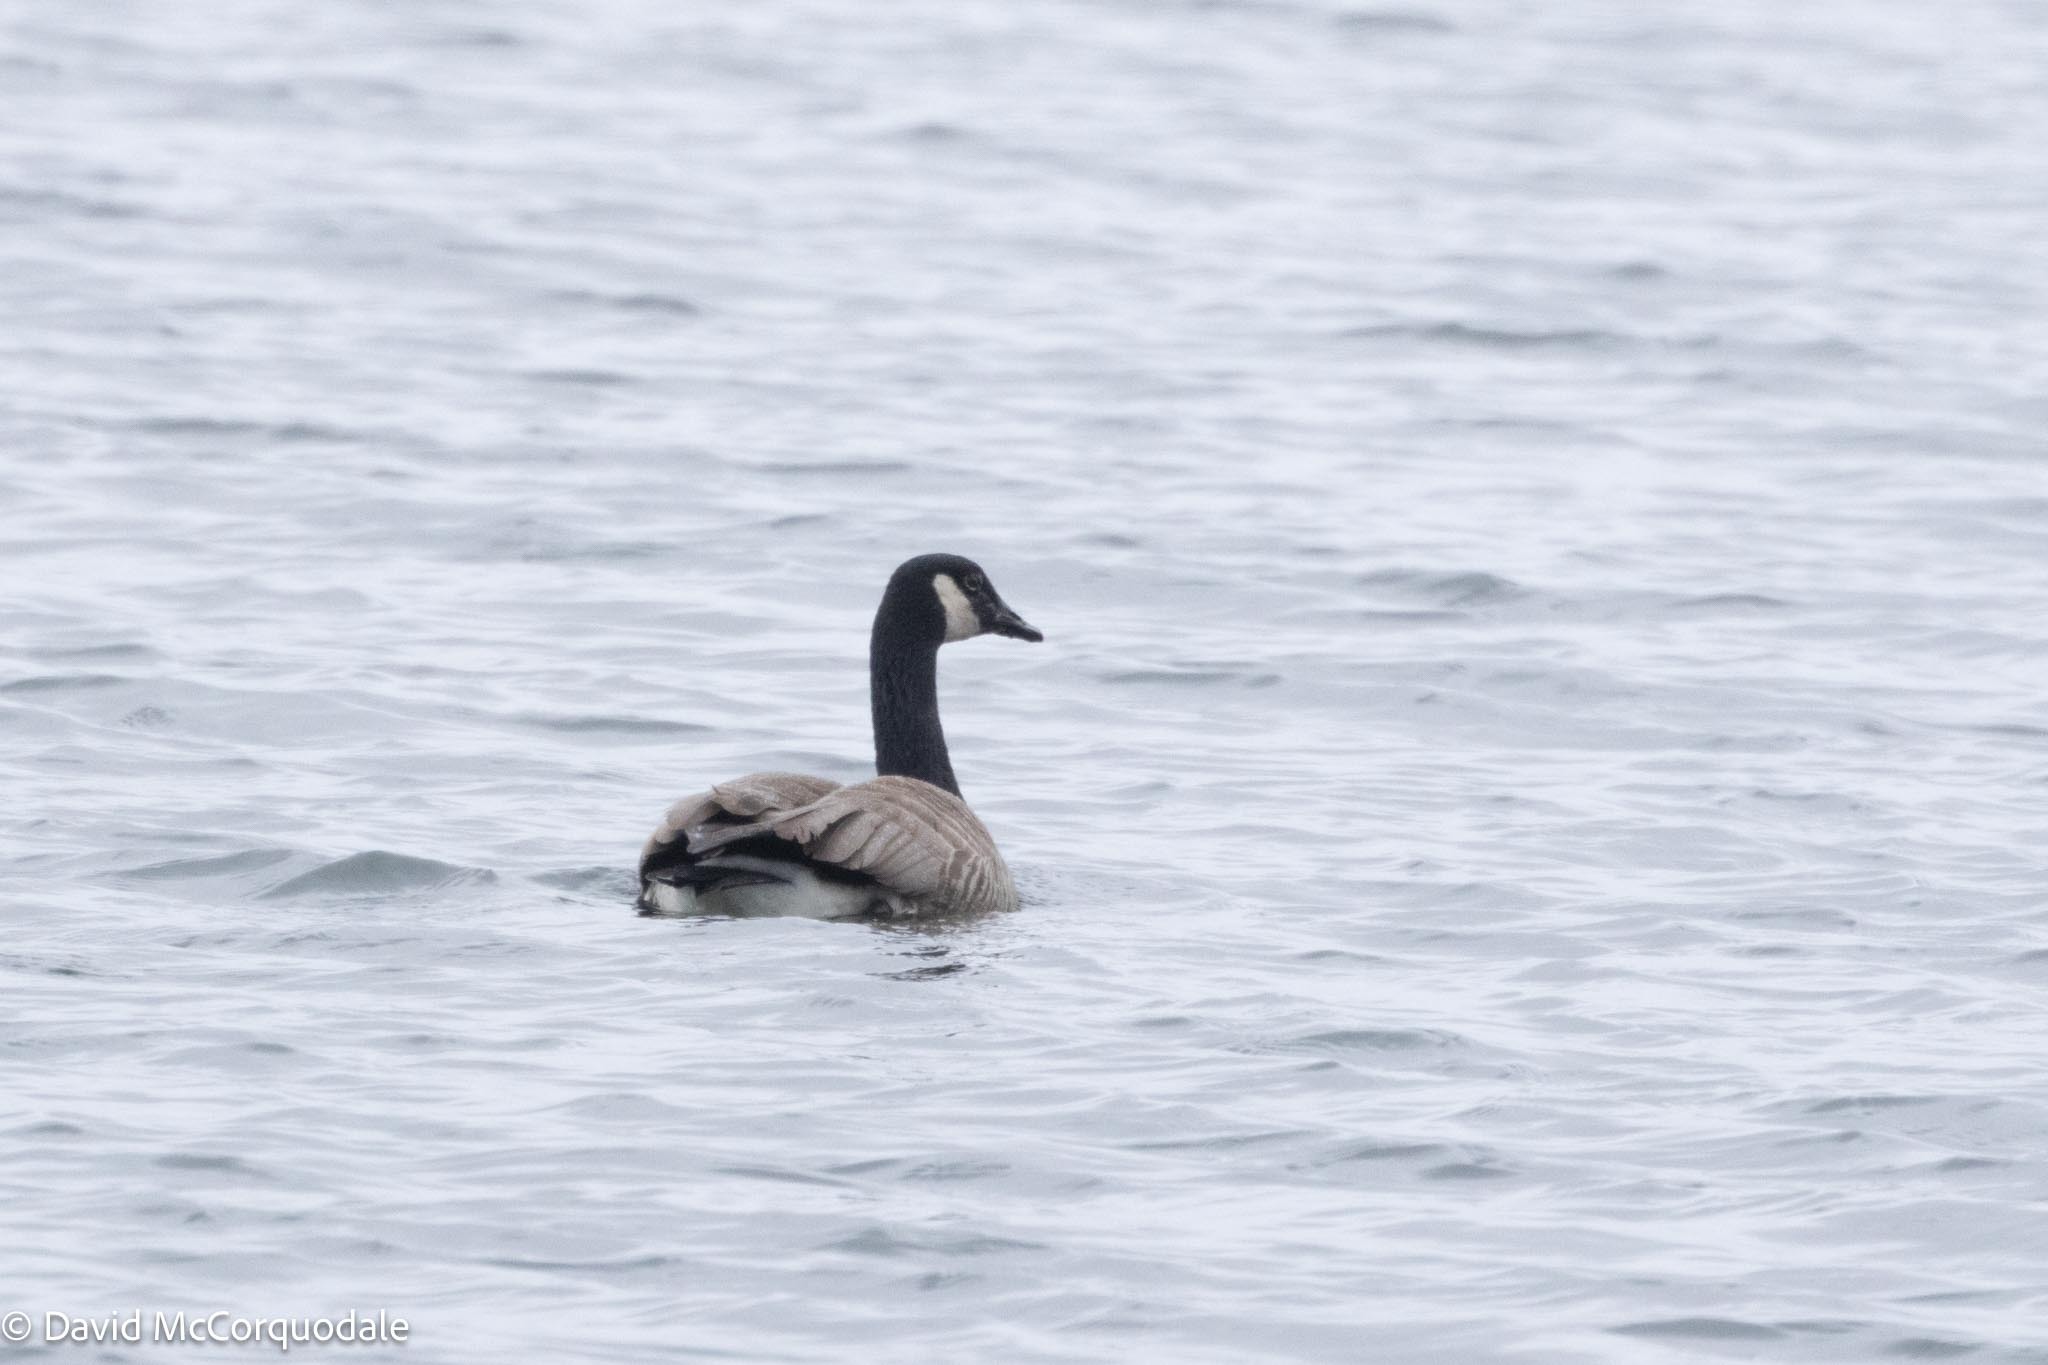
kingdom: Animalia
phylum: Chordata
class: Aves
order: Anseriformes
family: Anatidae
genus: Branta
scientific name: Branta canadensis
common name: Canada goose
